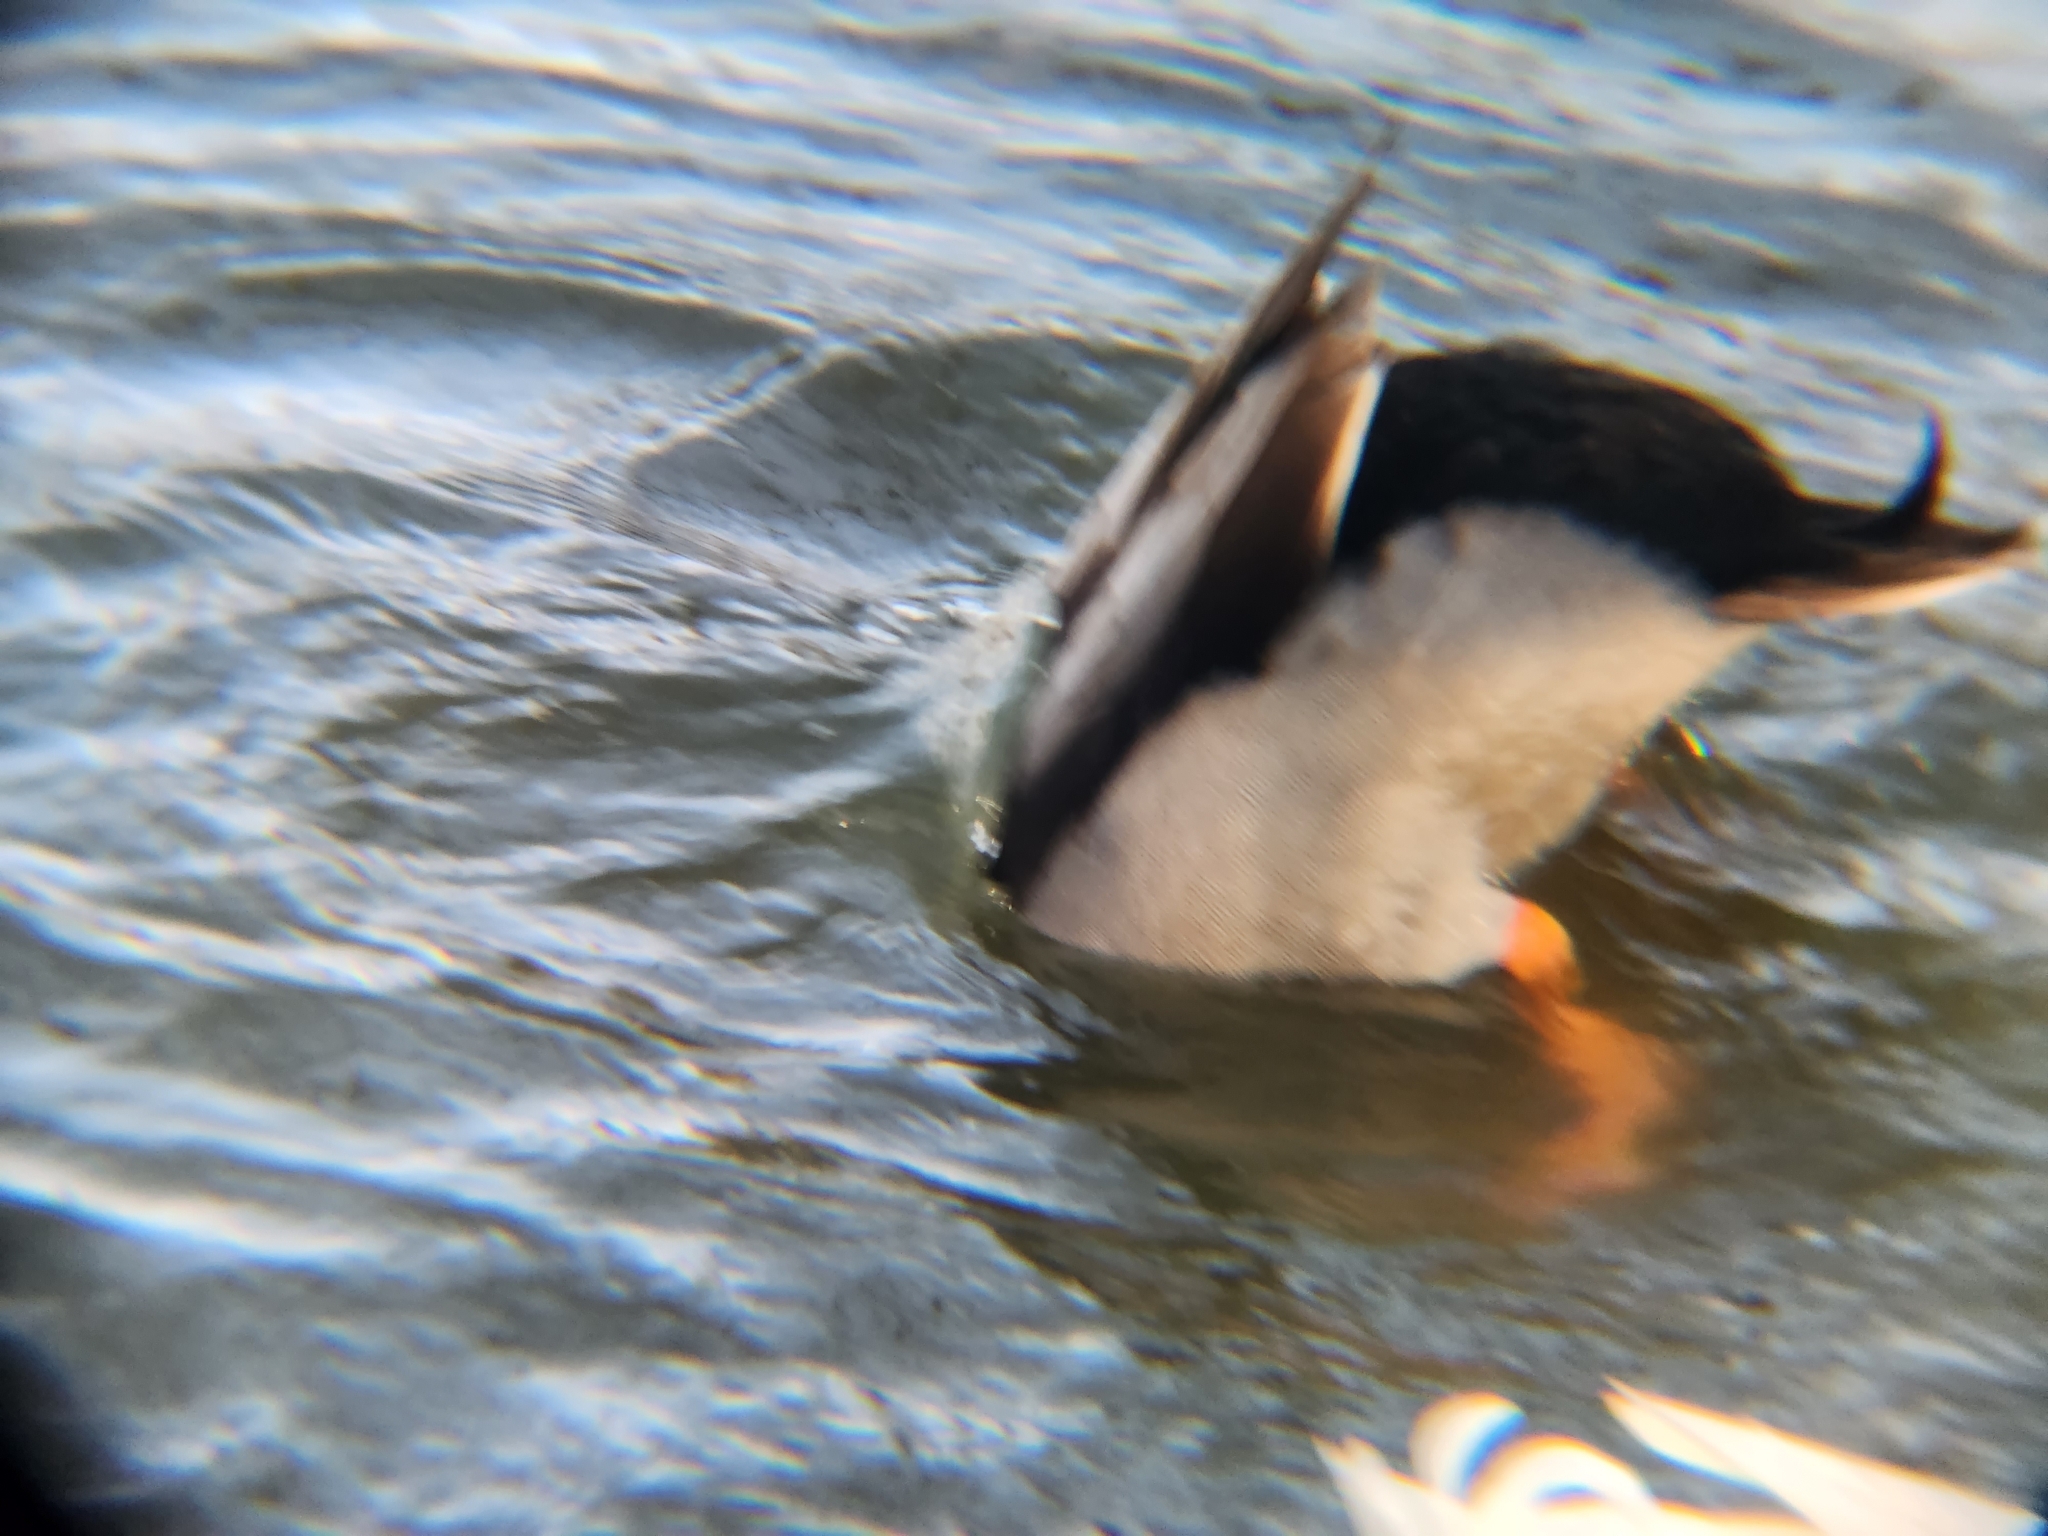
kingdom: Animalia
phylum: Chordata
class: Aves
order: Anseriformes
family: Anatidae
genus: Anas
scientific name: Anas platyrhynchos
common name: Mallard
